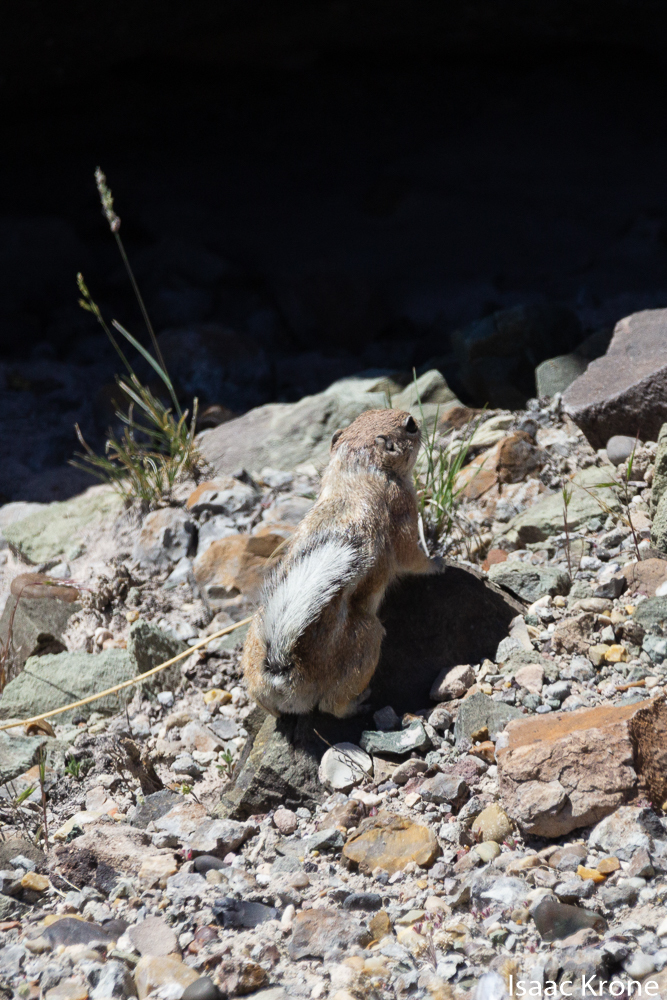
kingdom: Animalia
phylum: Chordata
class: Mammalia
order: Rodentia
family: Sciuridae
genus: Ammospermophilus
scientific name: Ammospermophilus leucurus
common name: White-tailed antelope squirrel
